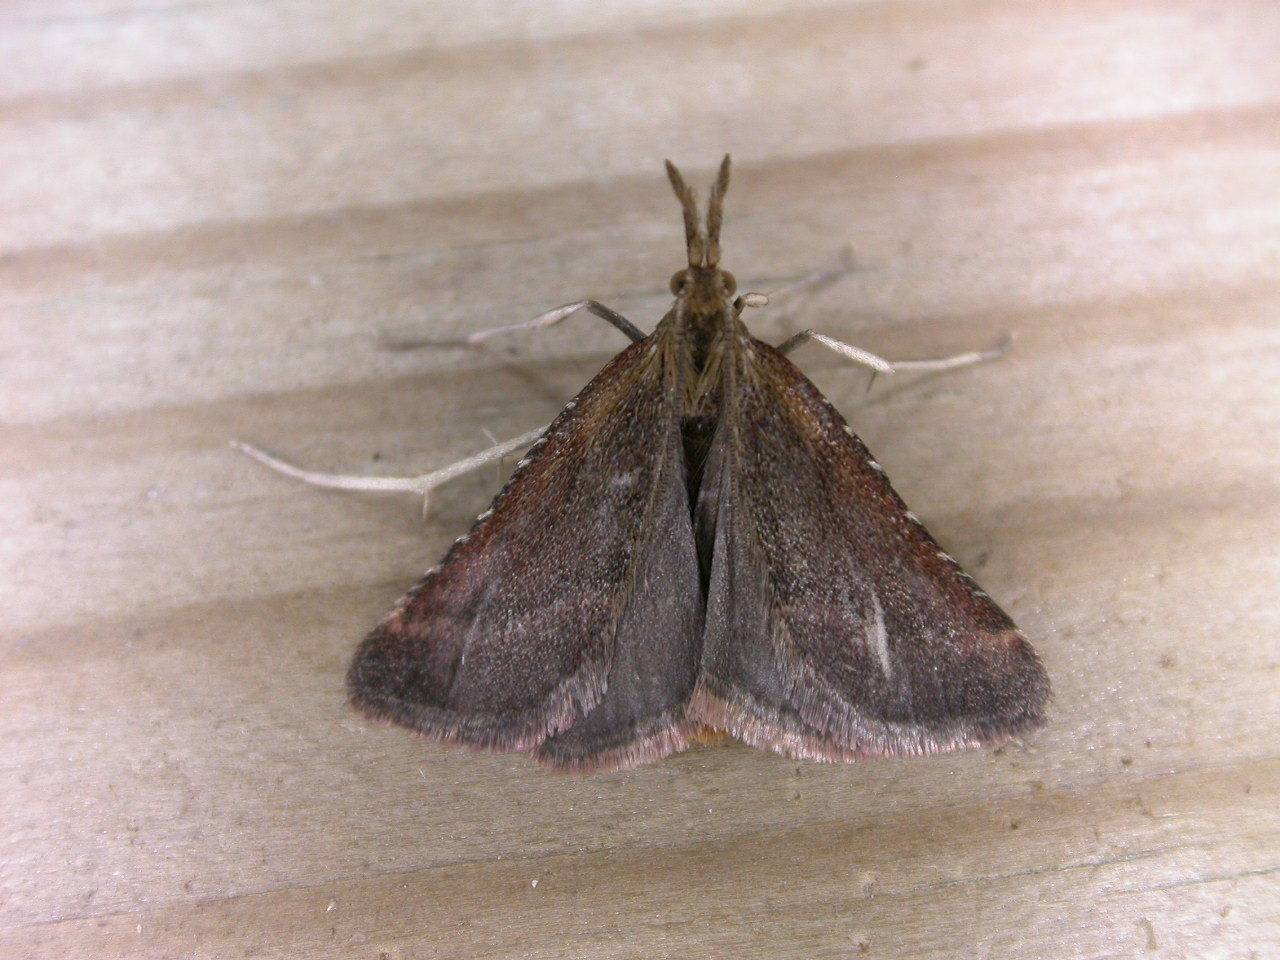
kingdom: Animalia
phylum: Arthropoda
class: Insecta
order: Lepidoptera
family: Pyralidae
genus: Synaphe
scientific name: Synaphe punctalis
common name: Long-legged tabby
